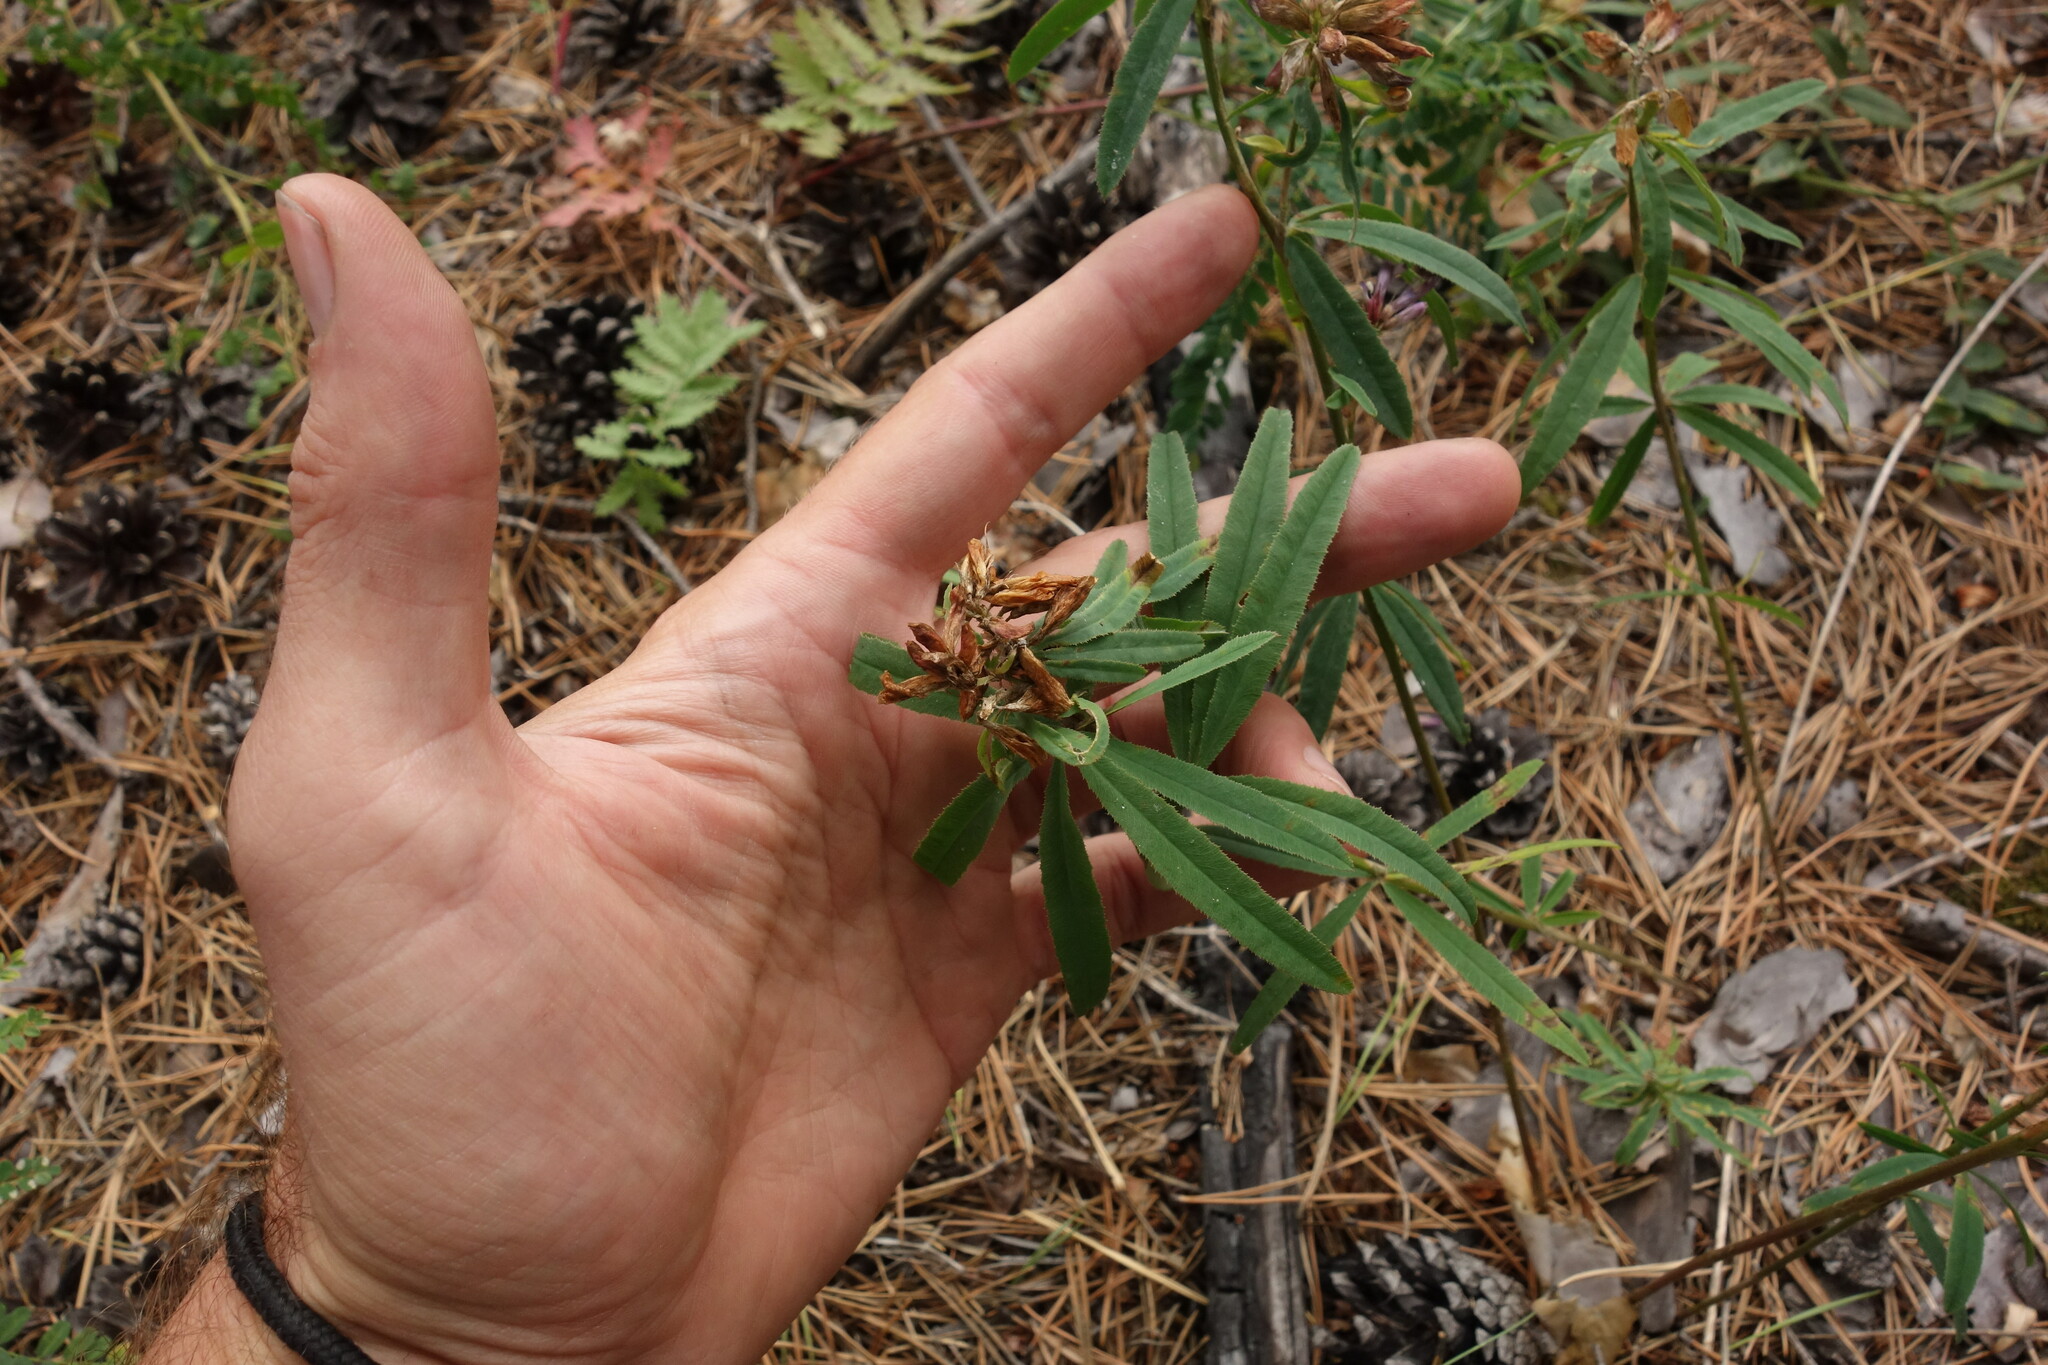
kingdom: Plantae
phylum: Tracheophyta
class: Magnoliopsida
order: Fabales
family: Fabaceae
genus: Trifolium
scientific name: Trifolium lupinaster
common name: Lupine clover
